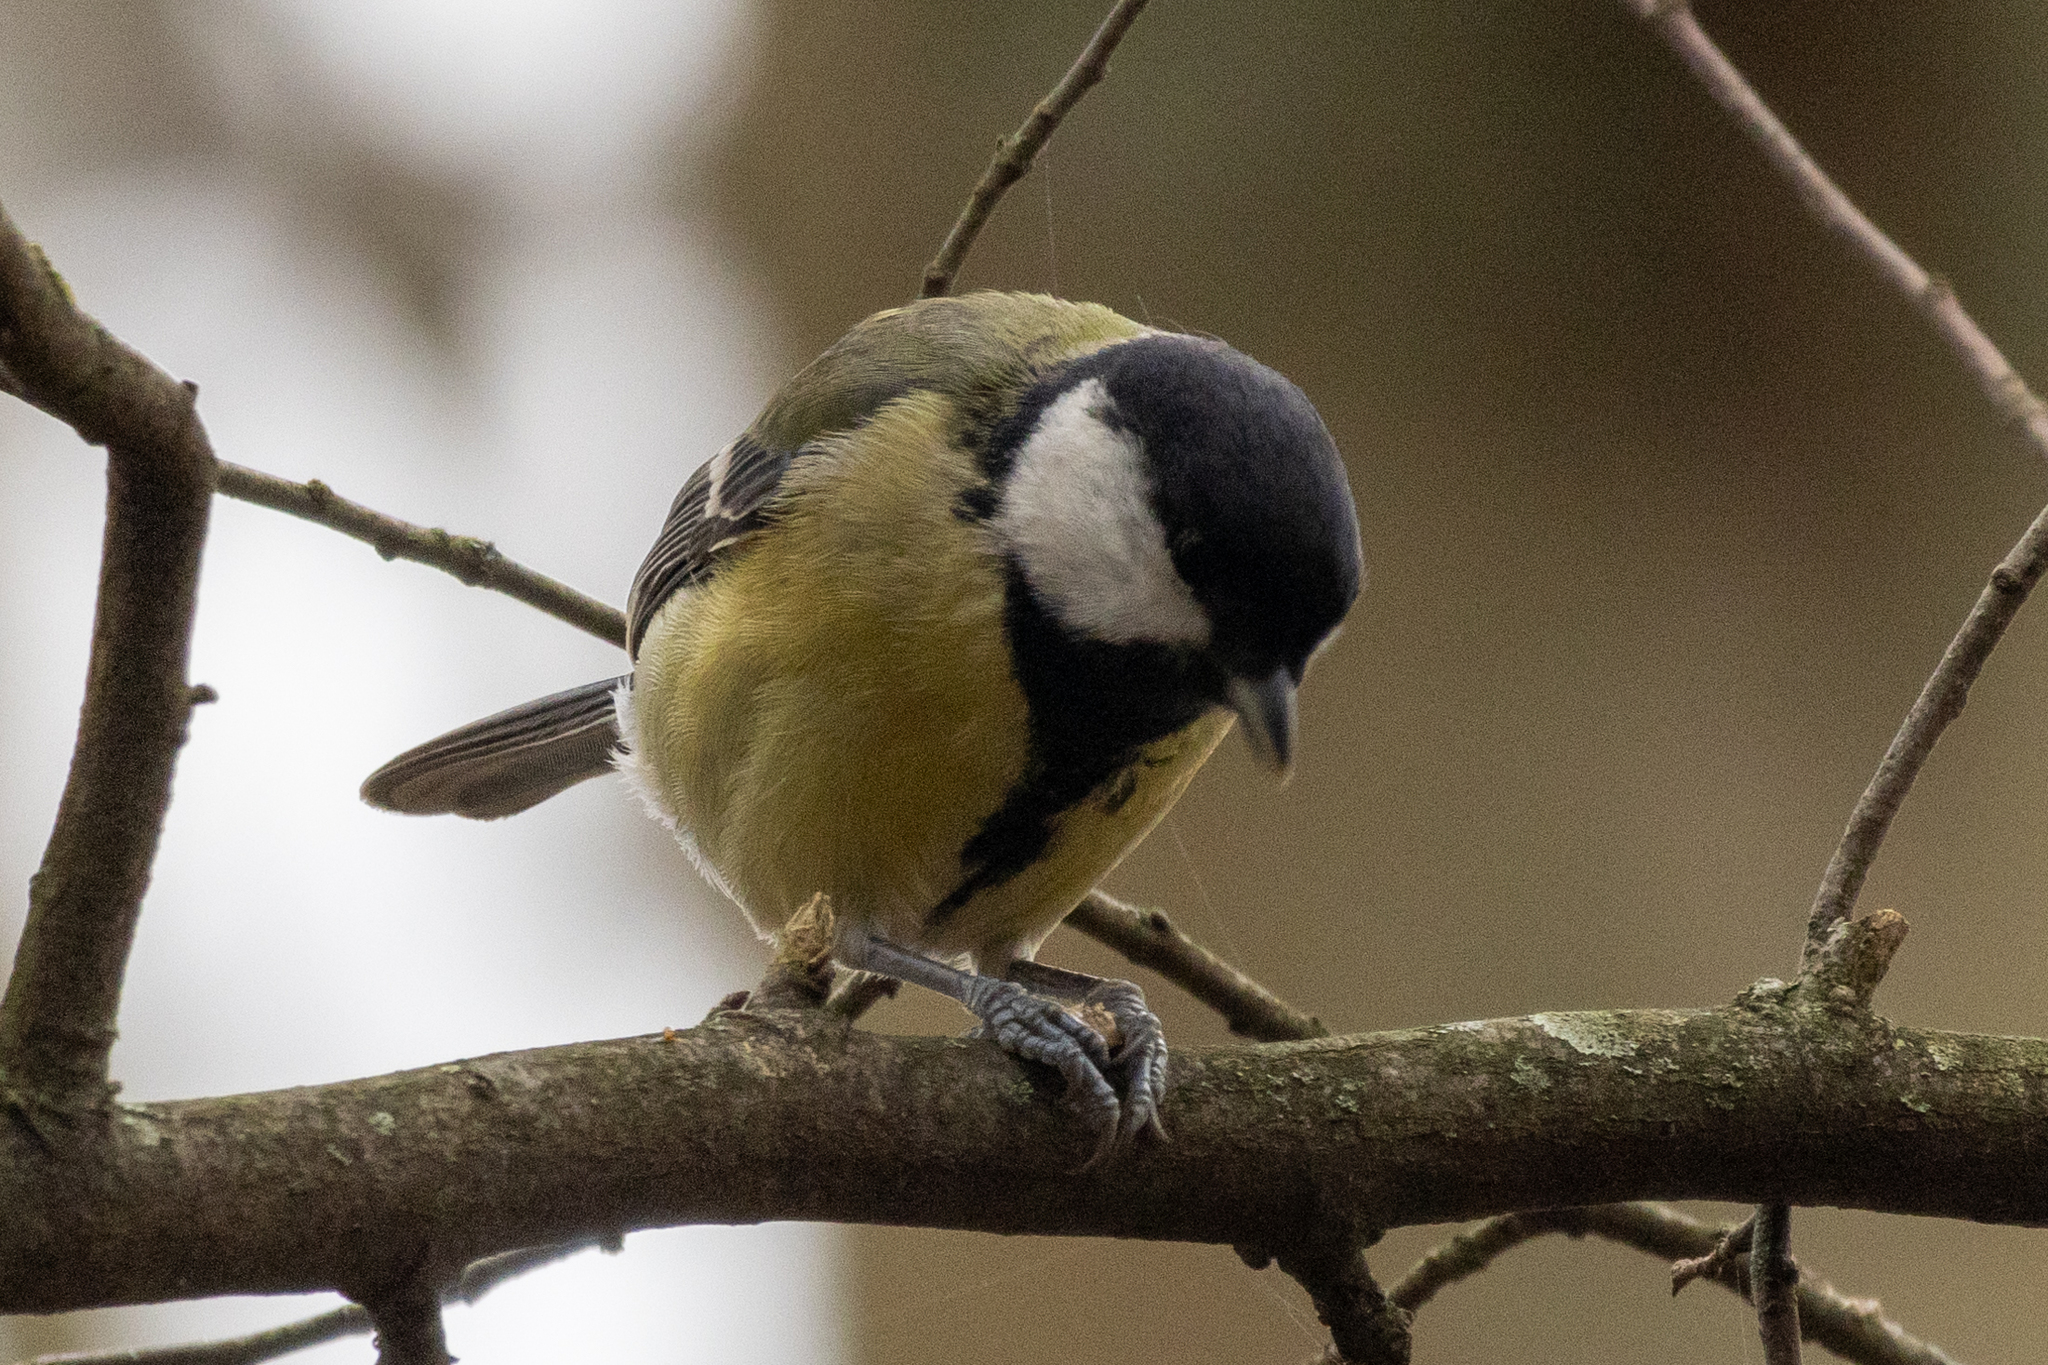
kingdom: Animalia
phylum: Chordata
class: Aves
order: Passeriformes
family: Paridae
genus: Parus
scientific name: Parus major
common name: Great tit
